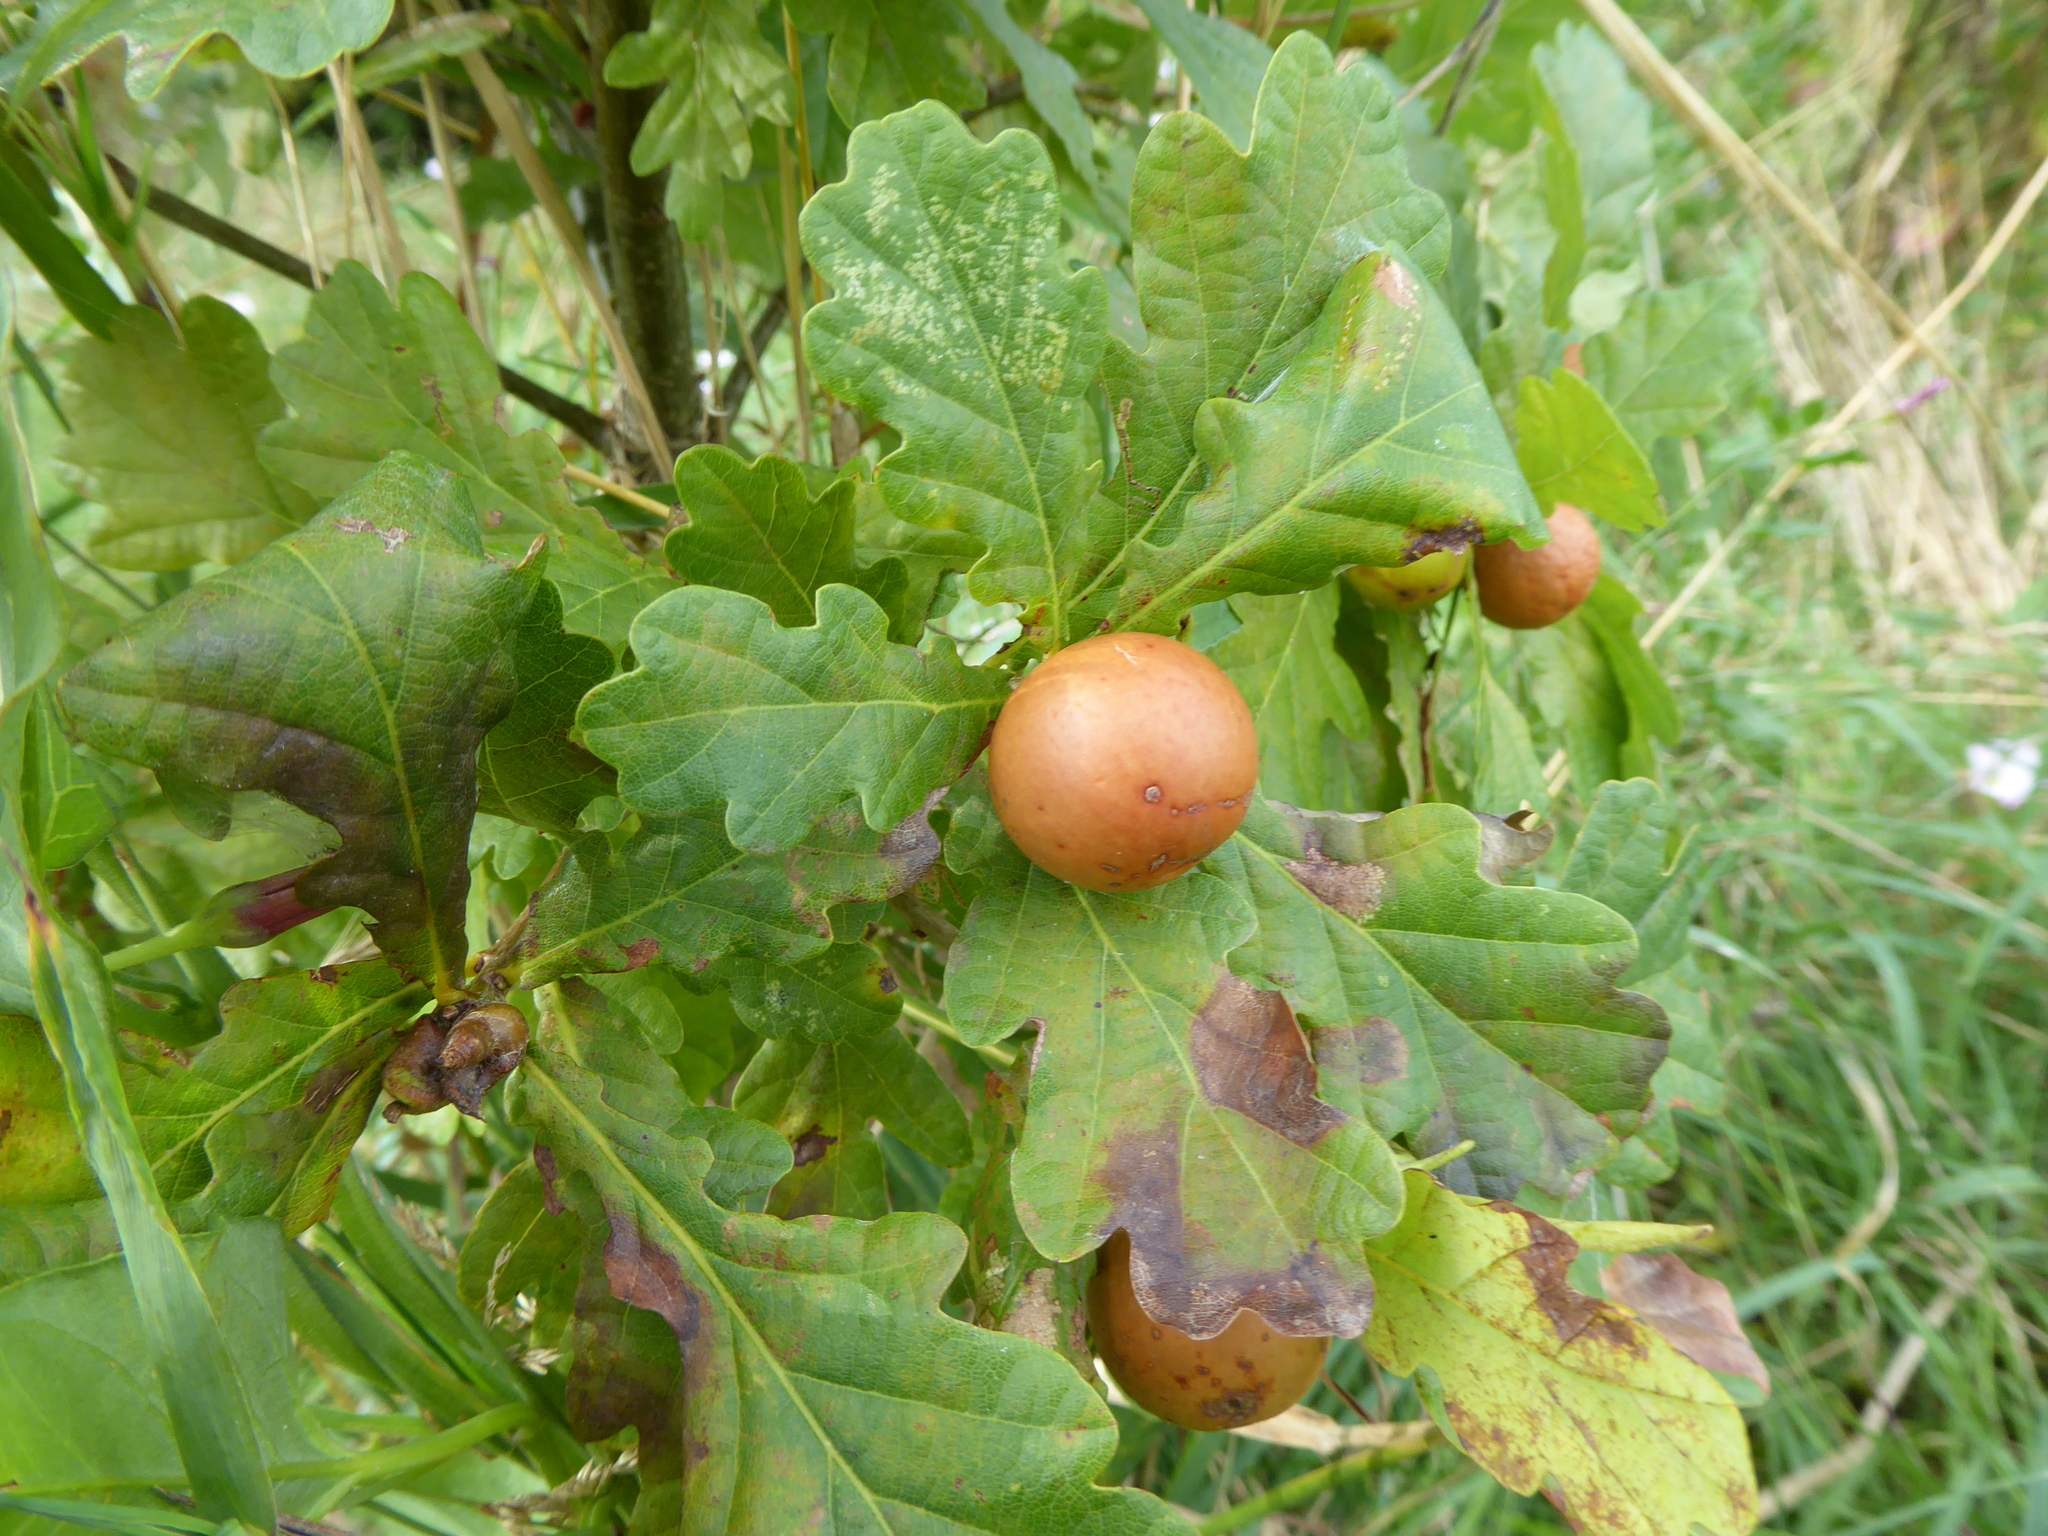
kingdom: Animalia
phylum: Arthropoda
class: Insecta
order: Hymenoptera
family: Cynipidae
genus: Andricus
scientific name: Andricus kollari
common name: Marble gall
